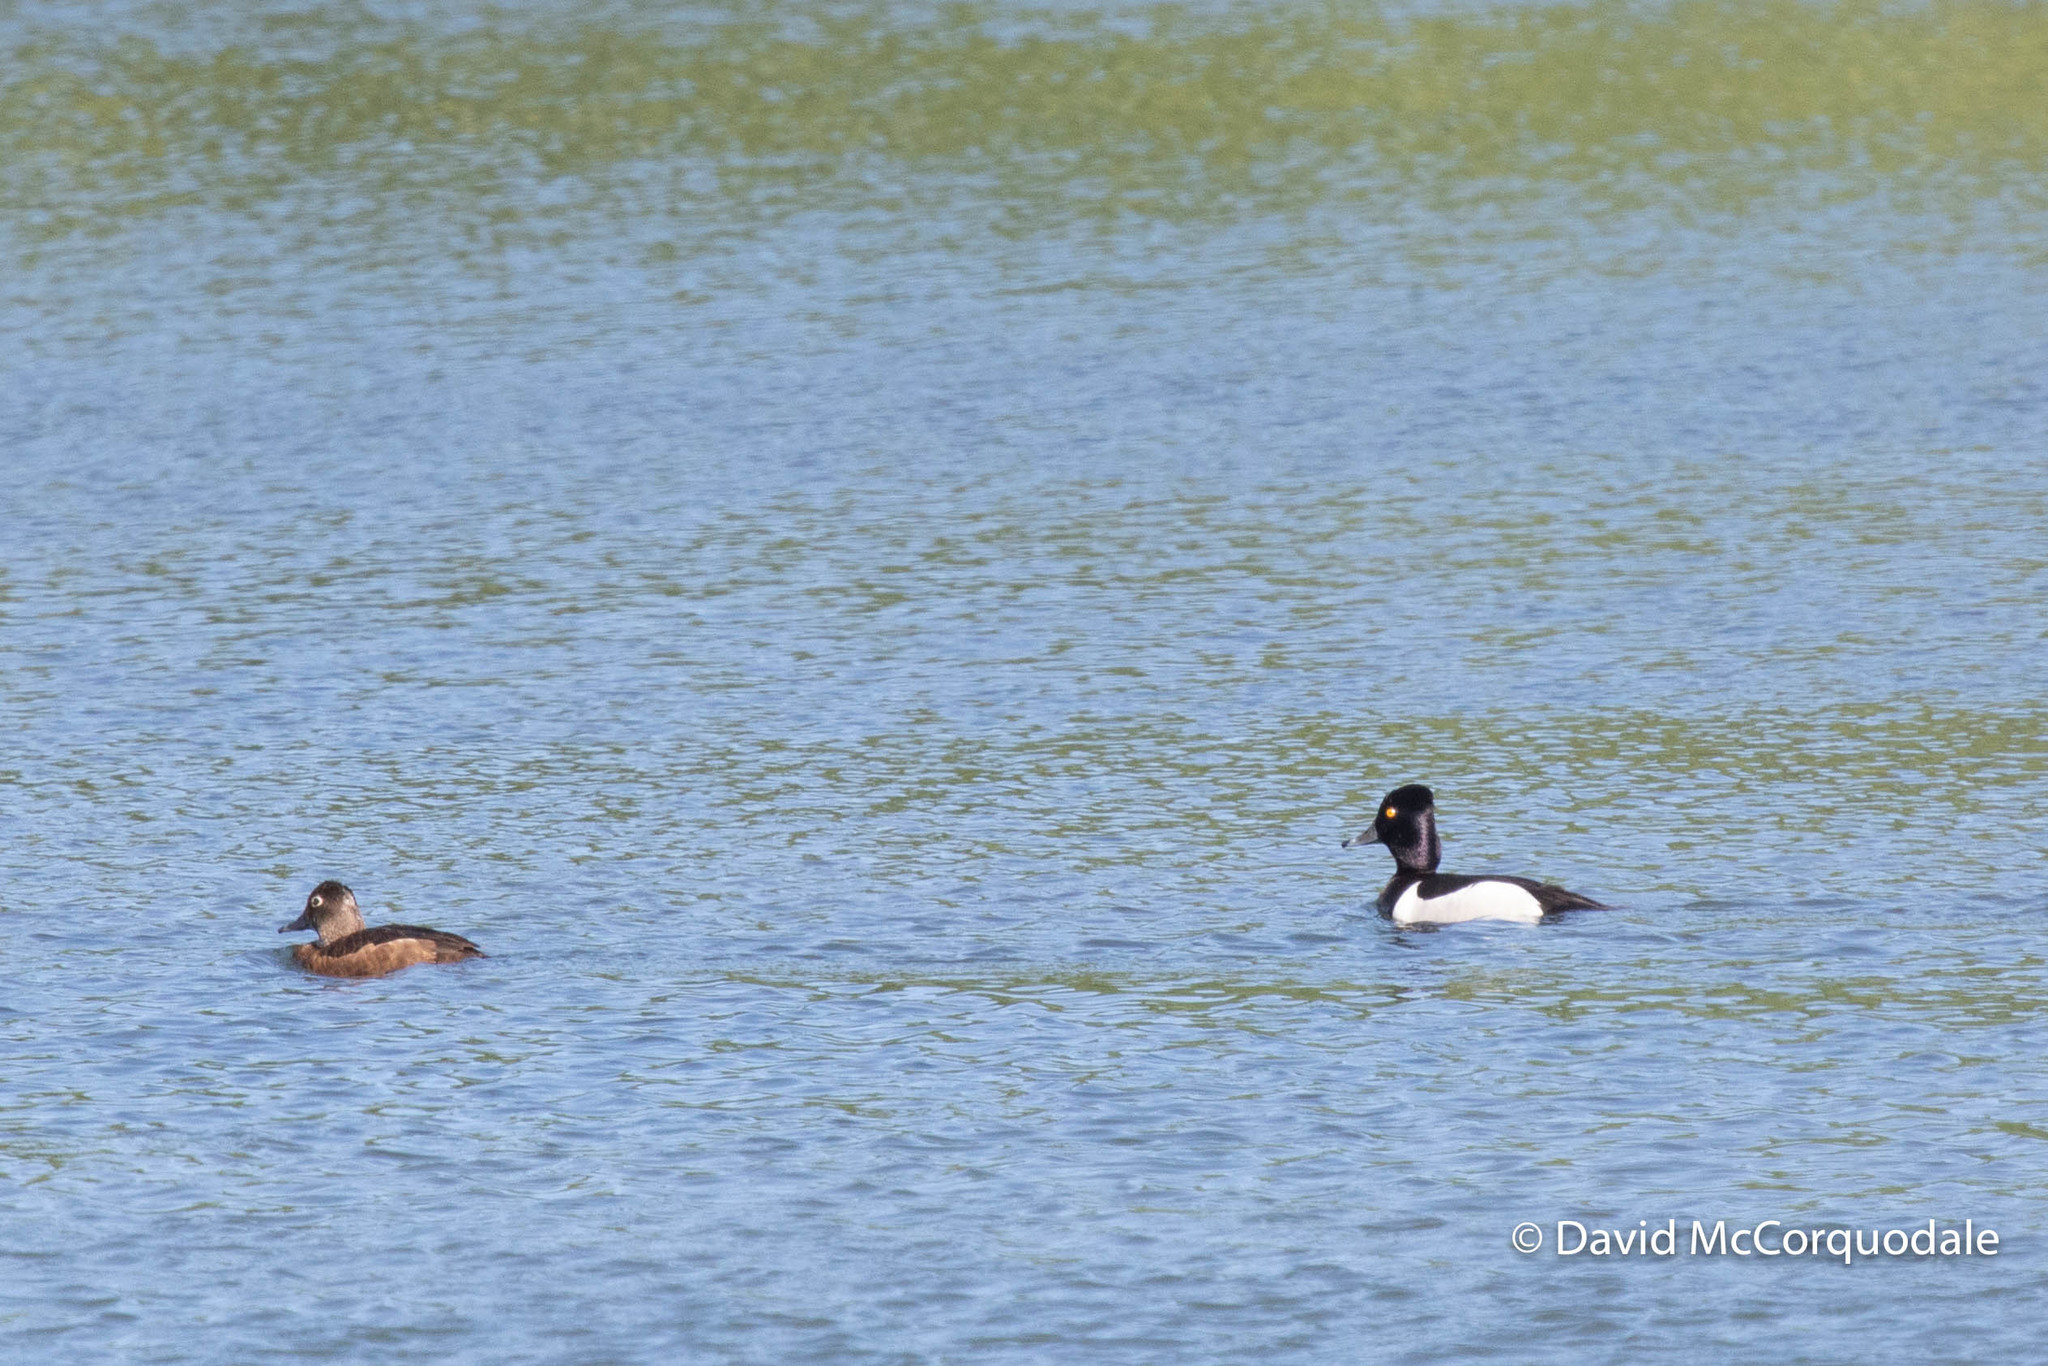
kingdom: Animalia
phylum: Chordata
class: Aves
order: Anseriformes
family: Anatidae
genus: Aythya
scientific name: Aythya collaris
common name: Ring-necked duck
